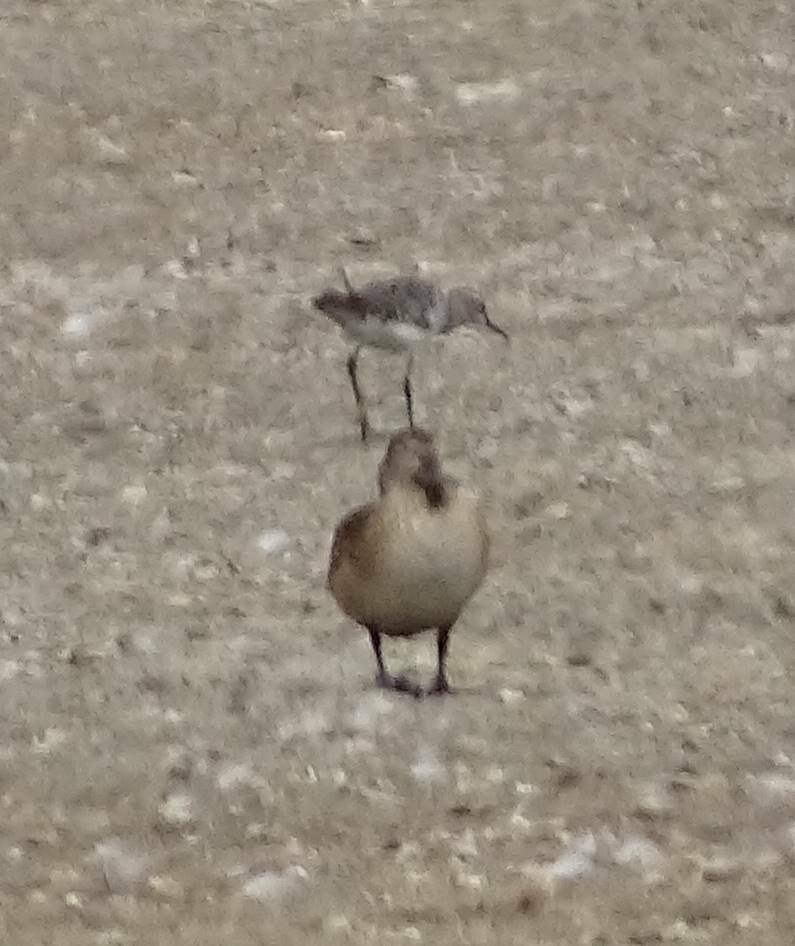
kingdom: Animalia
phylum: Chordata
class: Aves
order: Charadriiformes
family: Scolopacidae
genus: Calidris
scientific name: Calidris minuta
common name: Little stint
